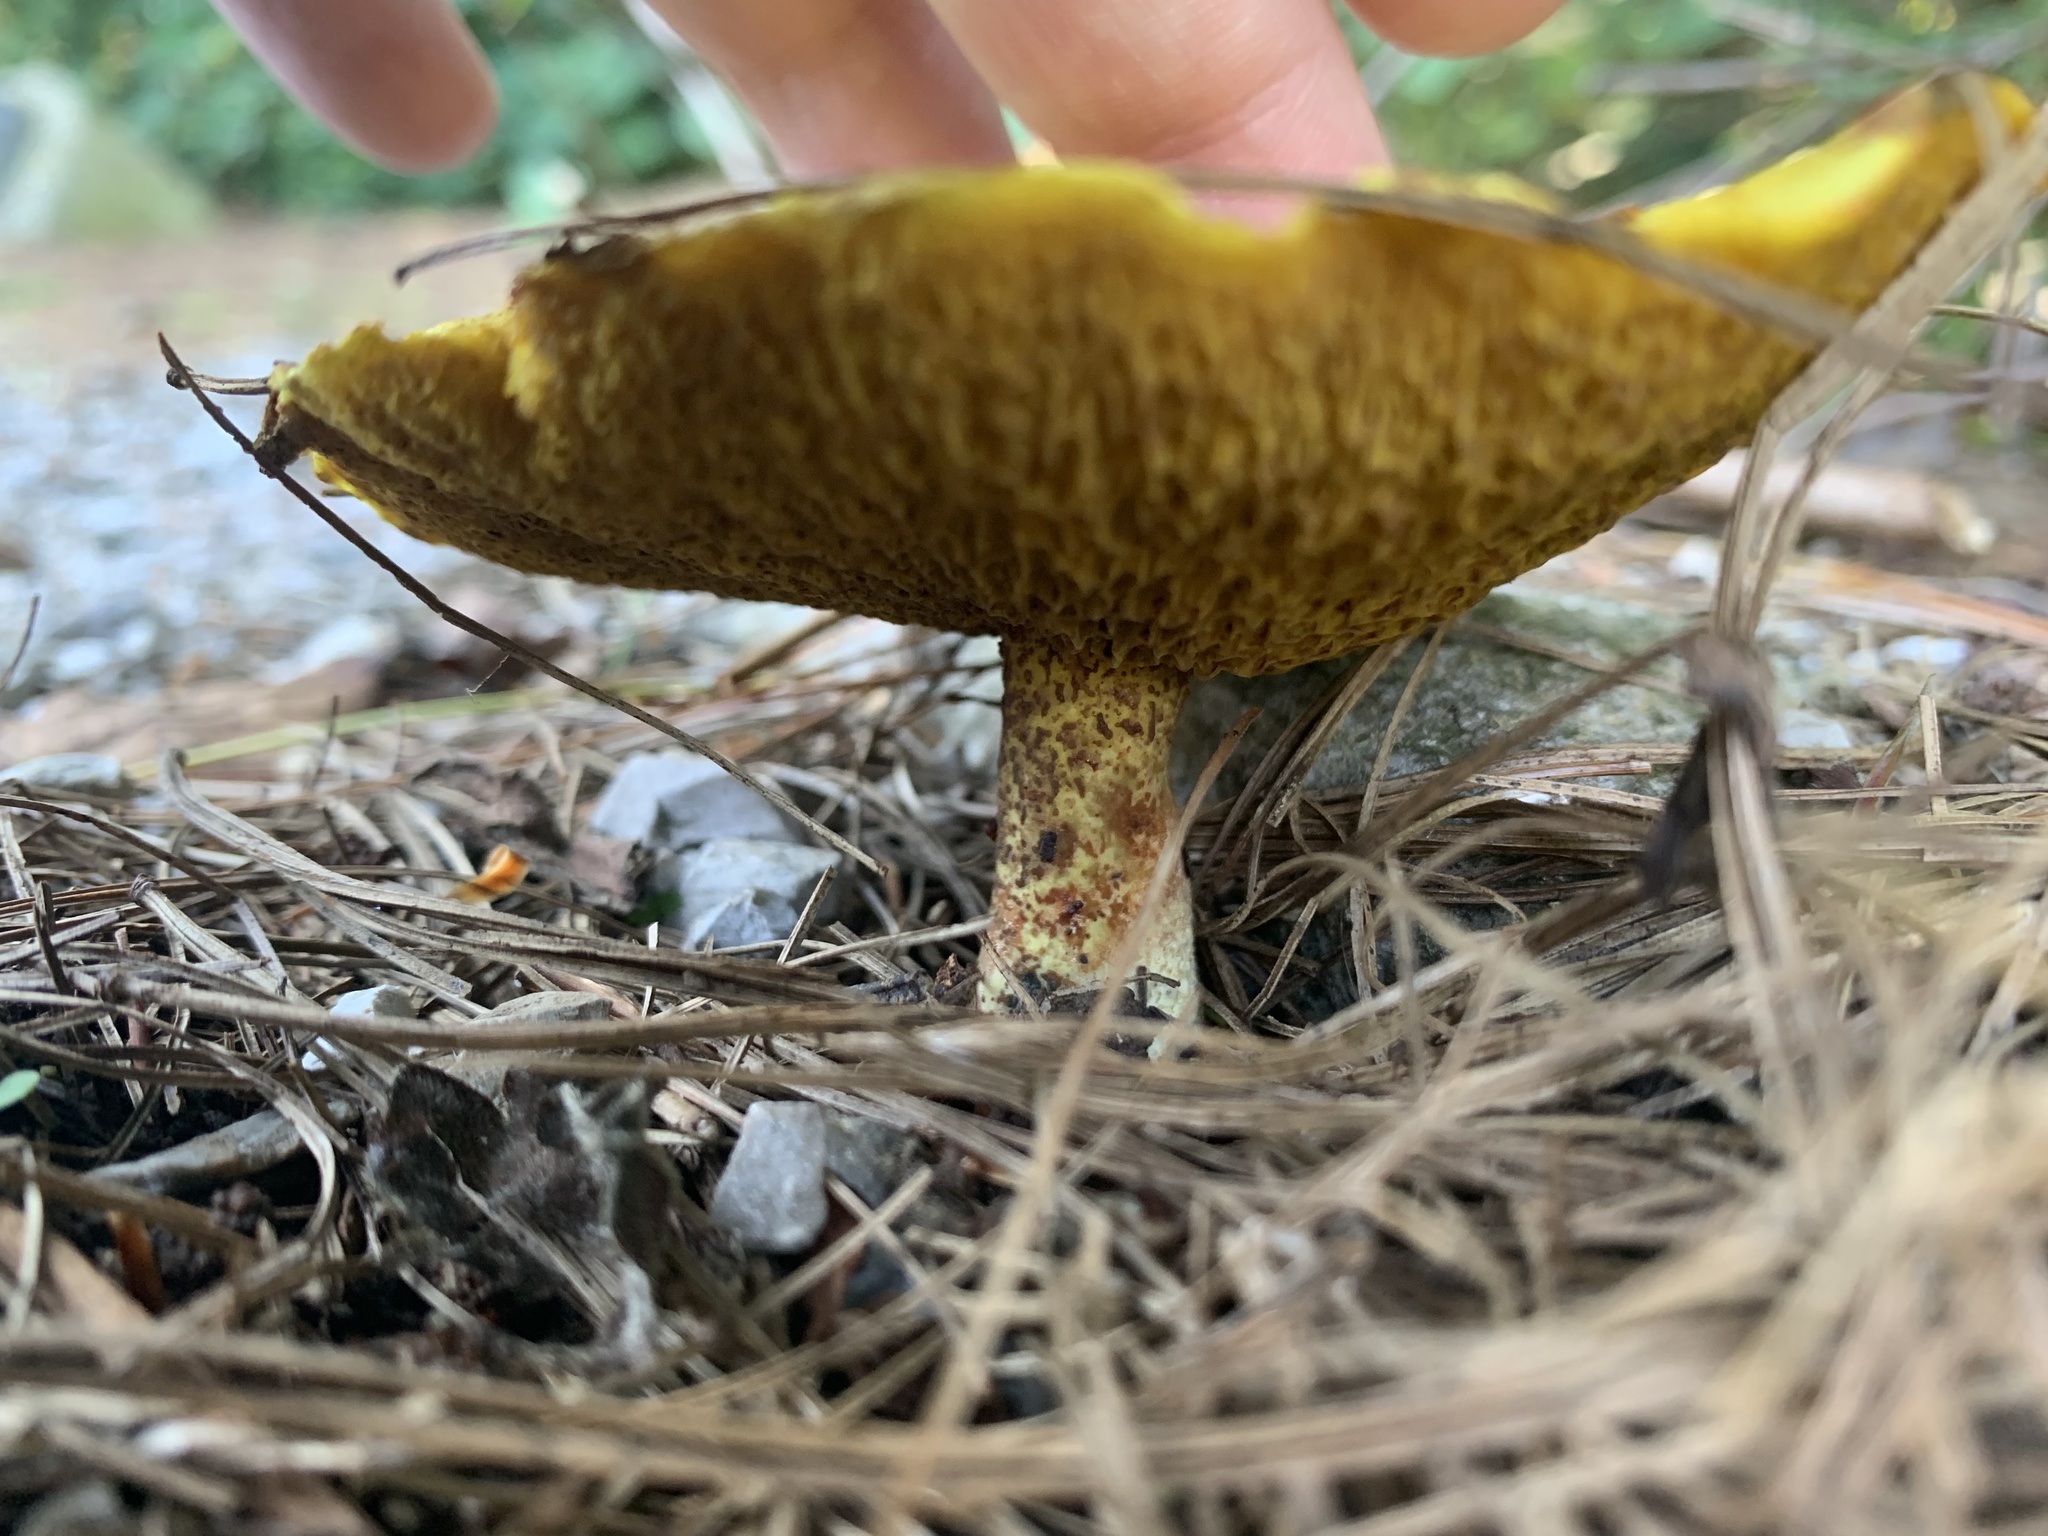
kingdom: Fungi
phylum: Basidiomycota
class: Agaricomycetes
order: Boletales
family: Suillaceae
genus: Suillus
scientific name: Suillus americanus
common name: Chicken fat mushroom
